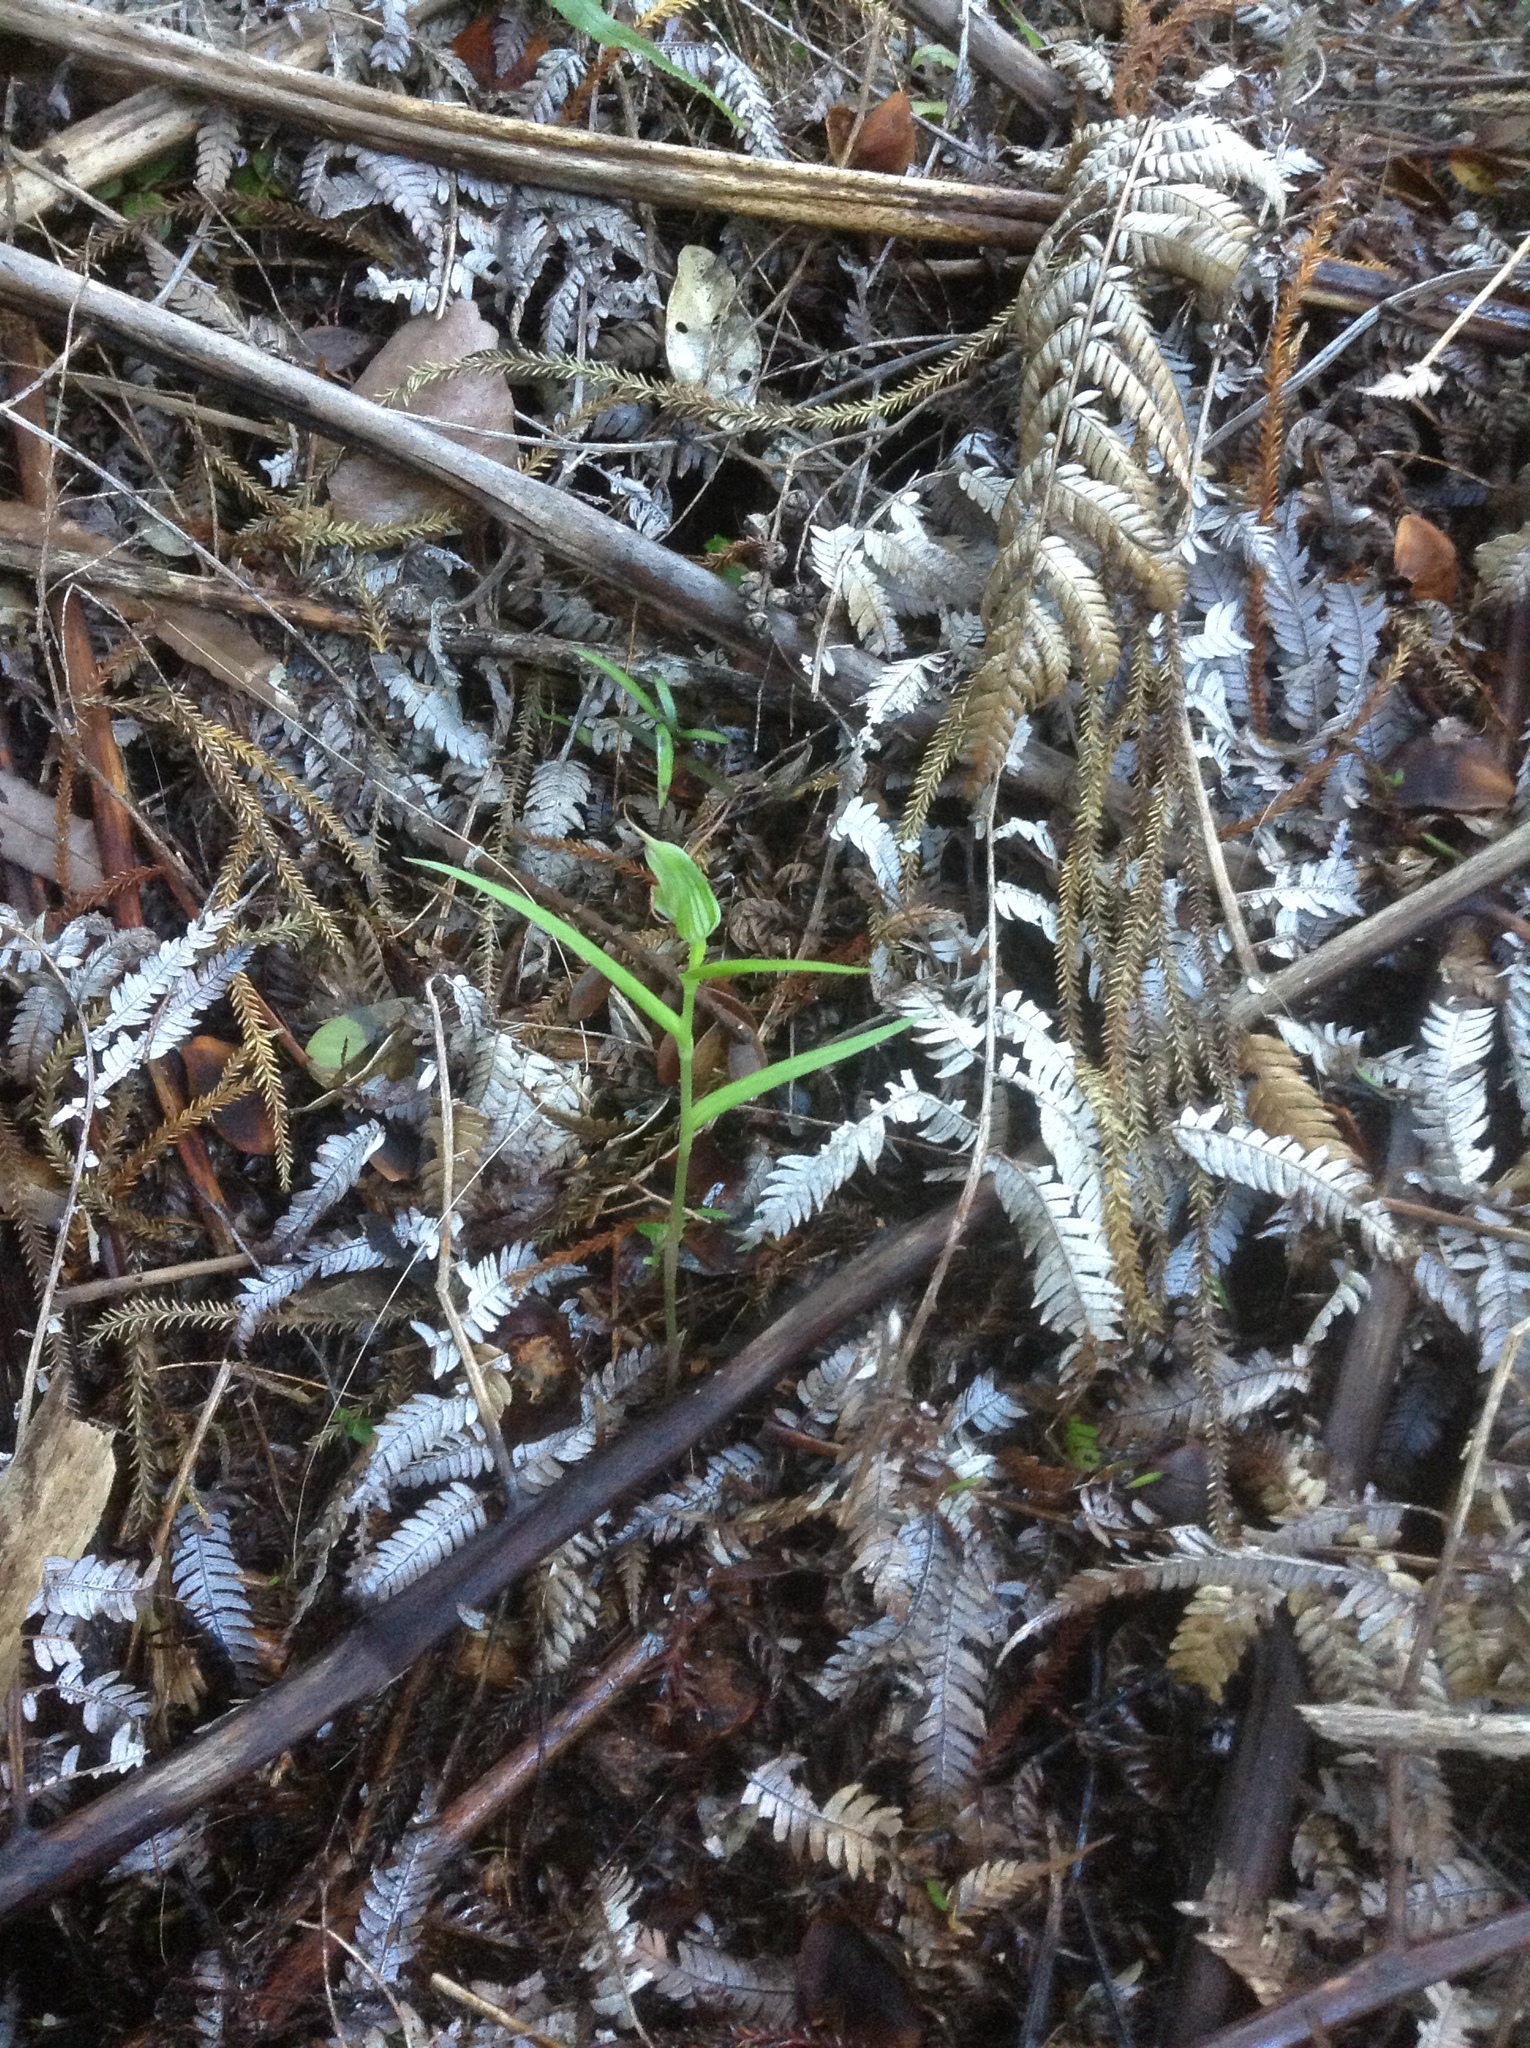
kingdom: Plantae
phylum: Tracheophyta
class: Liliopsida
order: Asparagales
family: Orchidaceae
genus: Pterostylis
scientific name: Pterostylis agathicola
